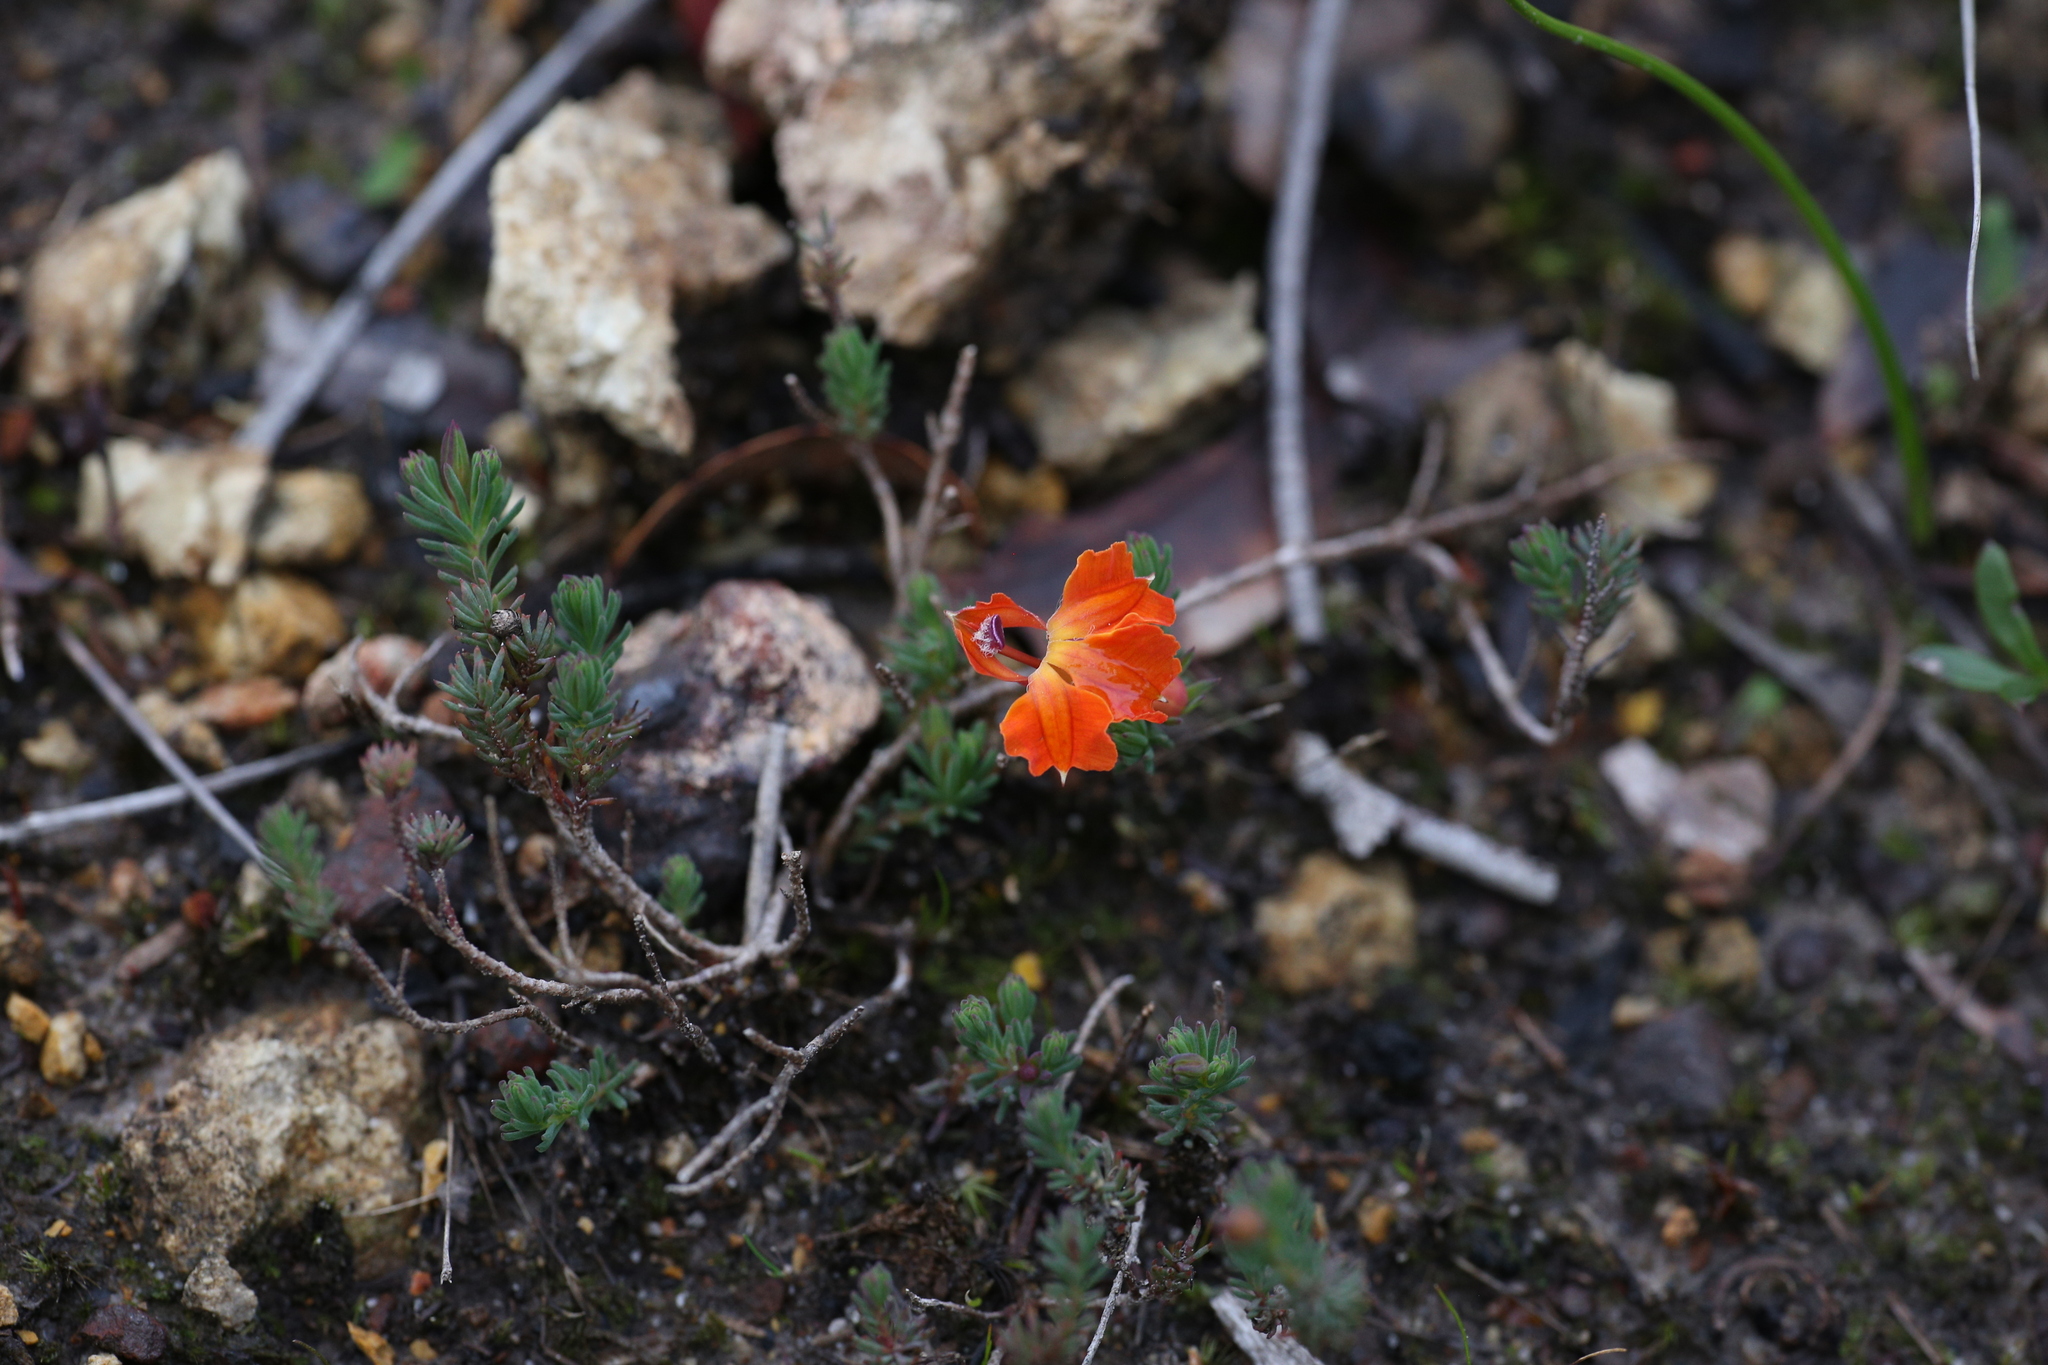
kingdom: Plantae
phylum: Tracheophyta
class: Magnoliopsida
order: Asterales
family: Goodeniaceae
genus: Lechenaultia
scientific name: Lechenaultia formosa
